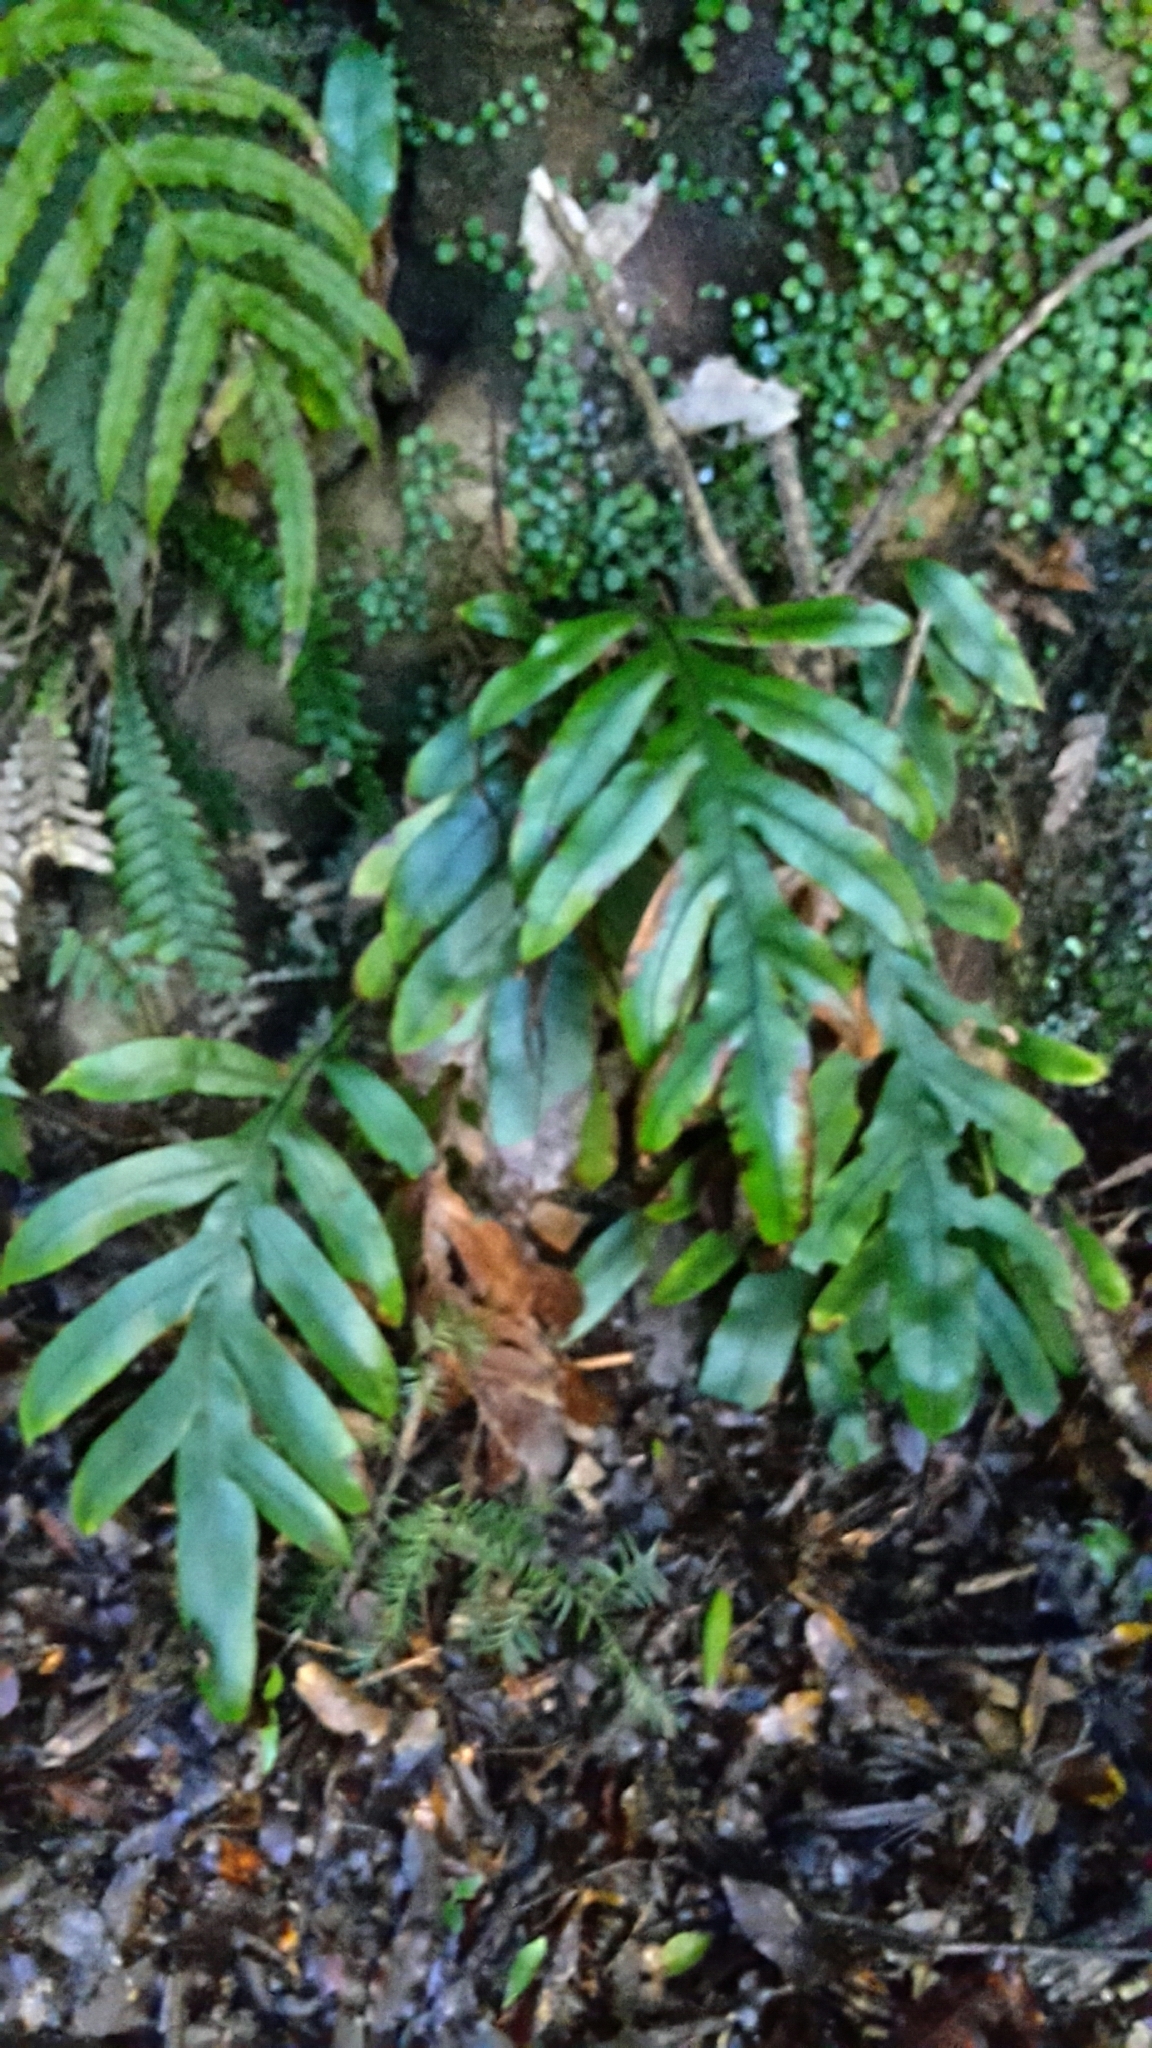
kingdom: Plantae
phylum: Tracheophyta
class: Polypodiopsida
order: Polypodiales
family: Blechnaceae
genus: Austroblechnum
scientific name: Austroblechnum colensoi
